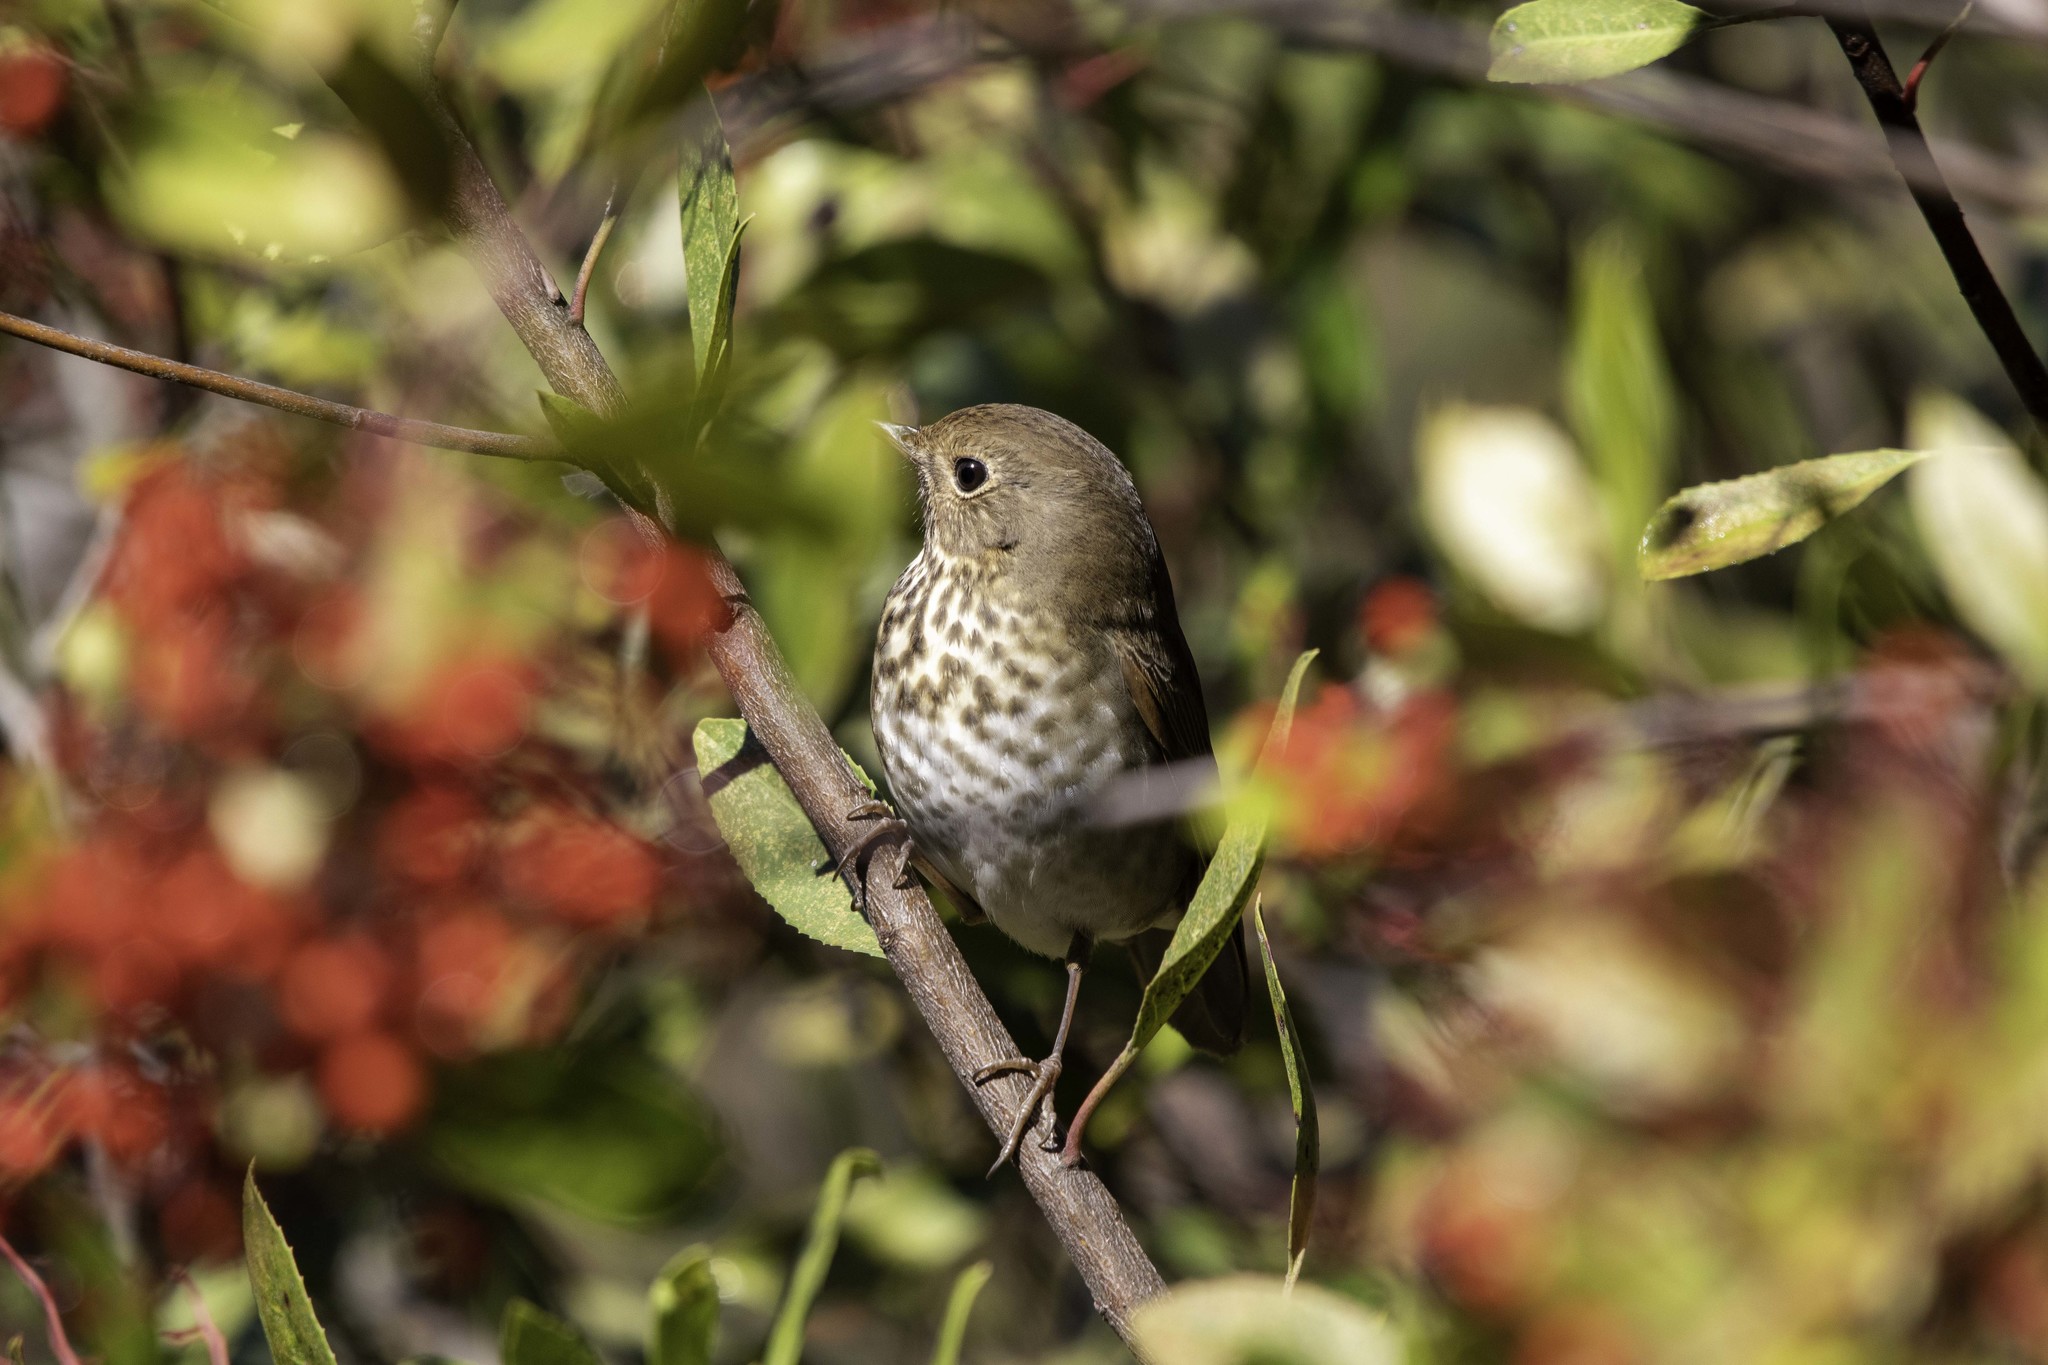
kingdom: Animalia
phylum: Chordata
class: Aves
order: Passeriformes
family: Turdidae
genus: Catharus
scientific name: Catharus guttatus
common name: Hermit thrush
